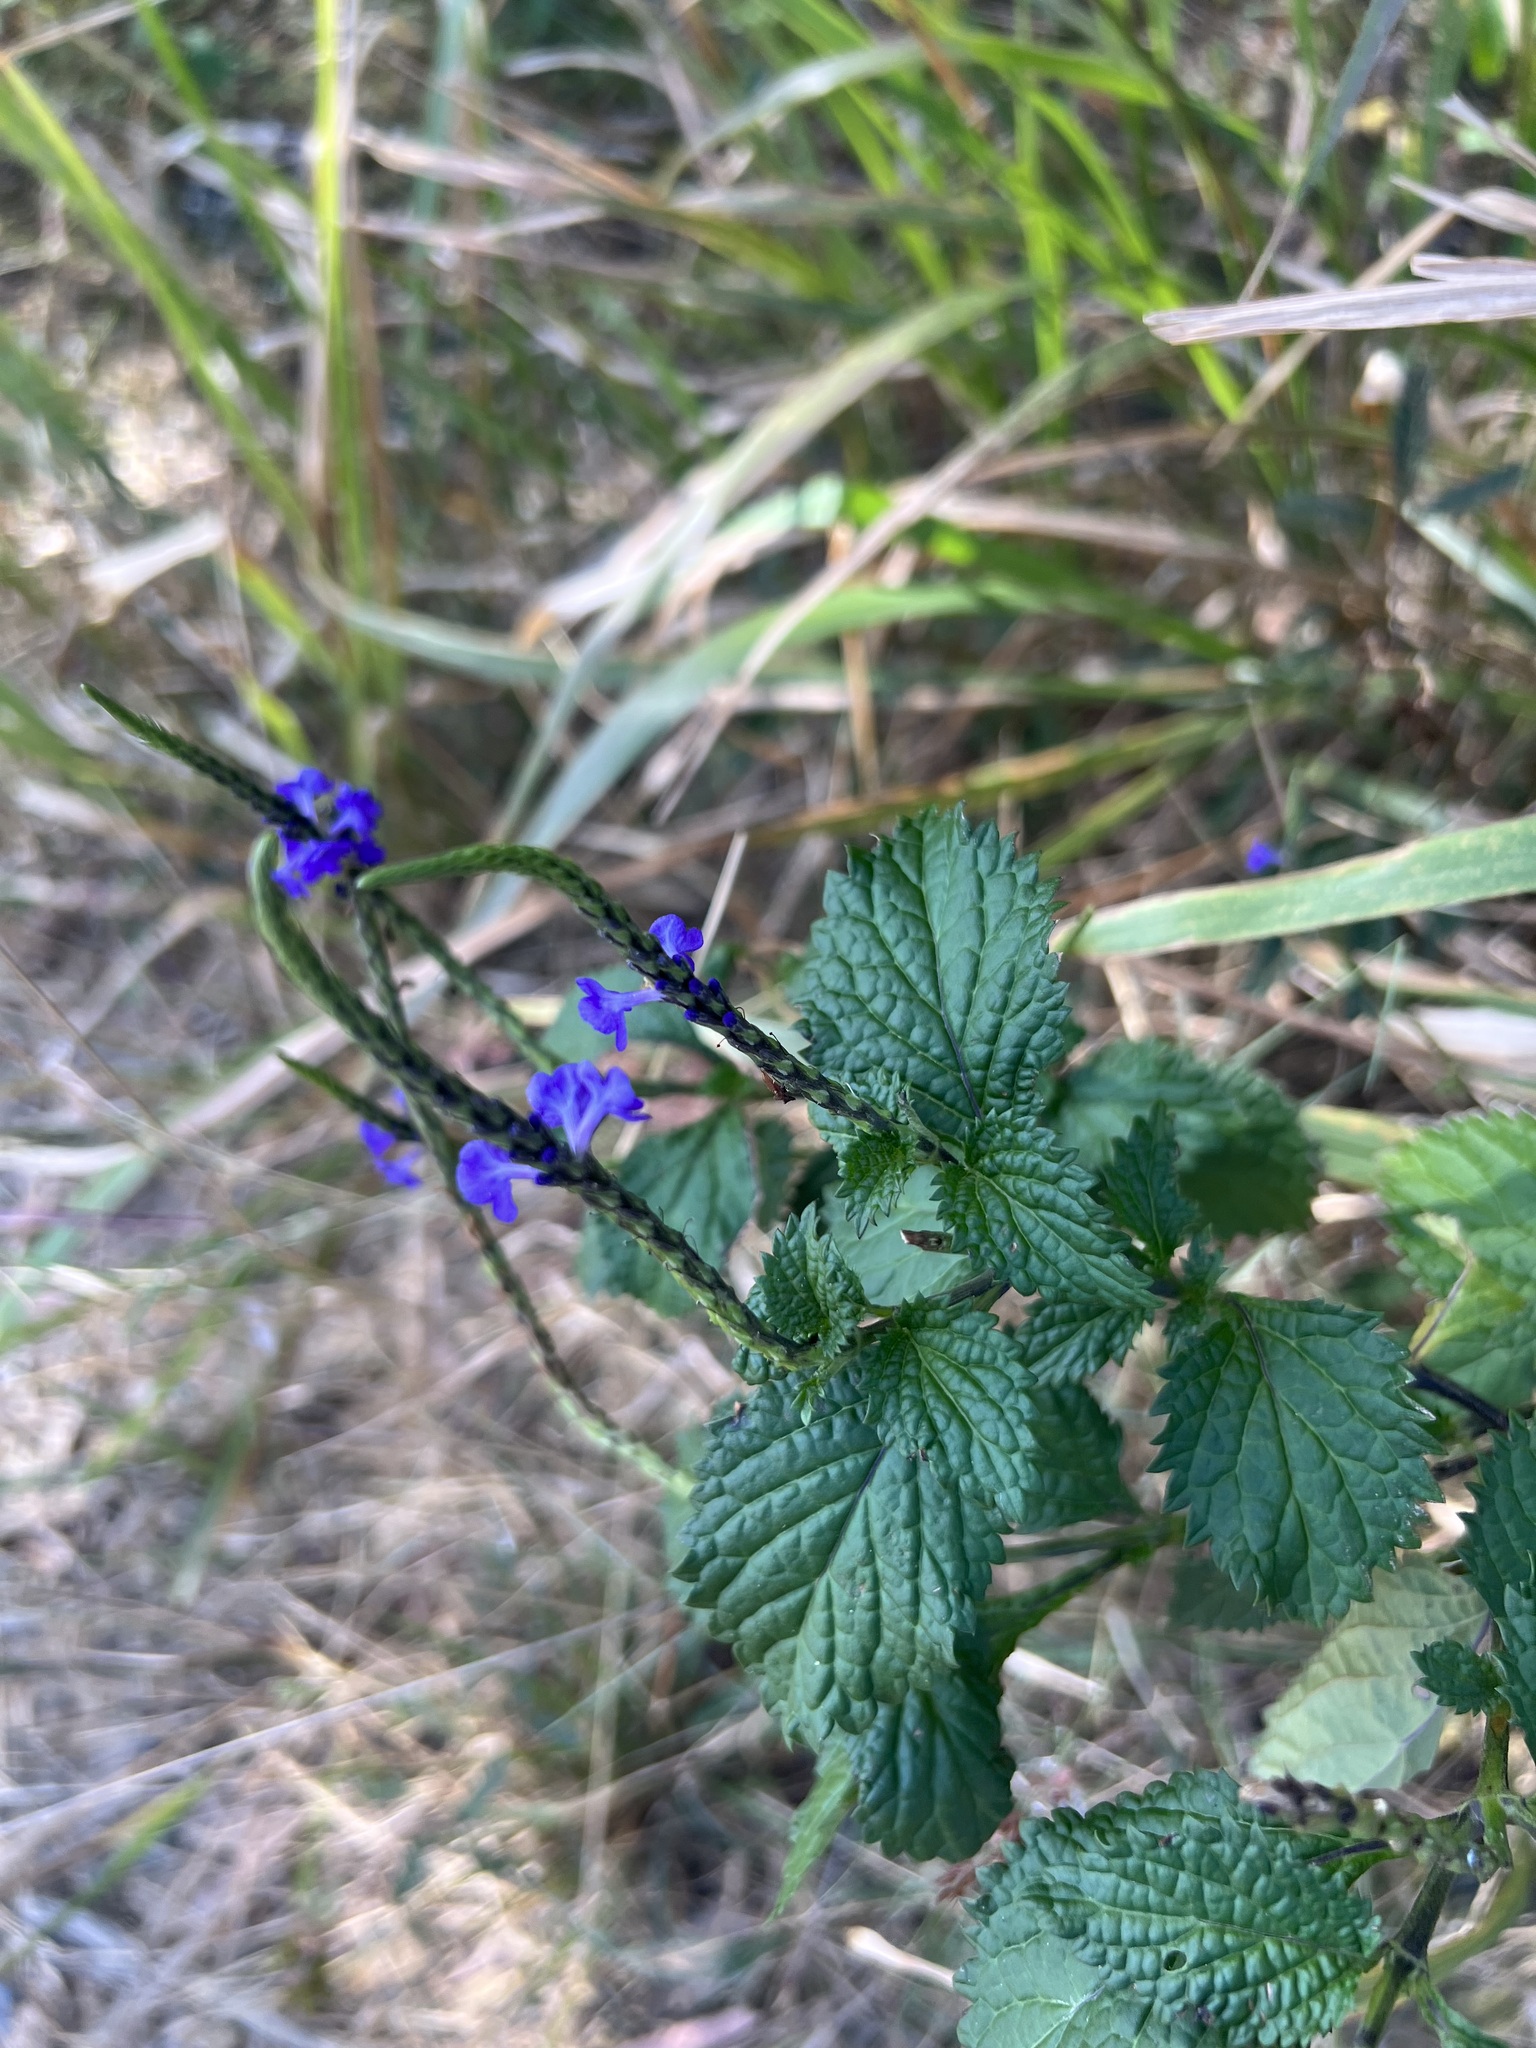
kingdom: Plantae
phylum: Tracheophyta
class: Magnoliopsida
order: Lamiales
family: Verbenaceae
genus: Stachytarpheta
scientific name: Stachytarpheta cayennensis
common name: Cayenne porterweed
